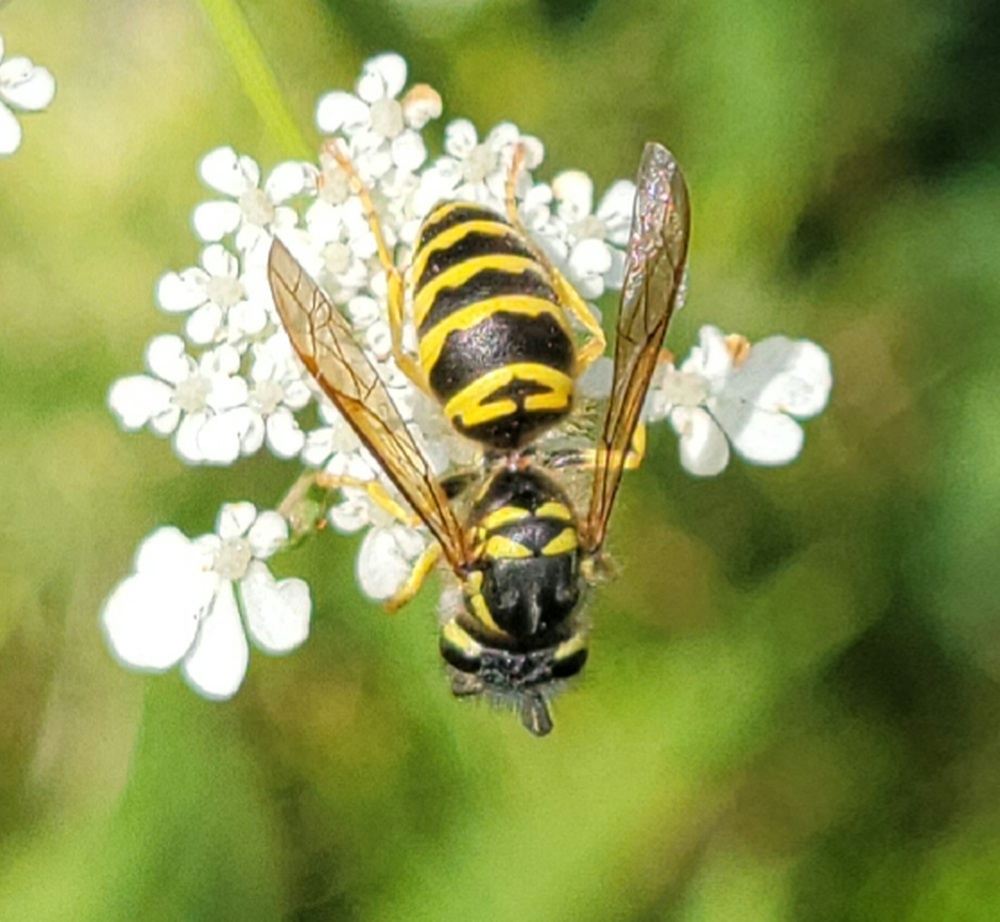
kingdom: Animalia
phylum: Arthropoda
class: Insecta
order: Hymenoptera
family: Vespidae
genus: Vespula
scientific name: Vespula maculifrons
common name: Eastern yellowjacket
